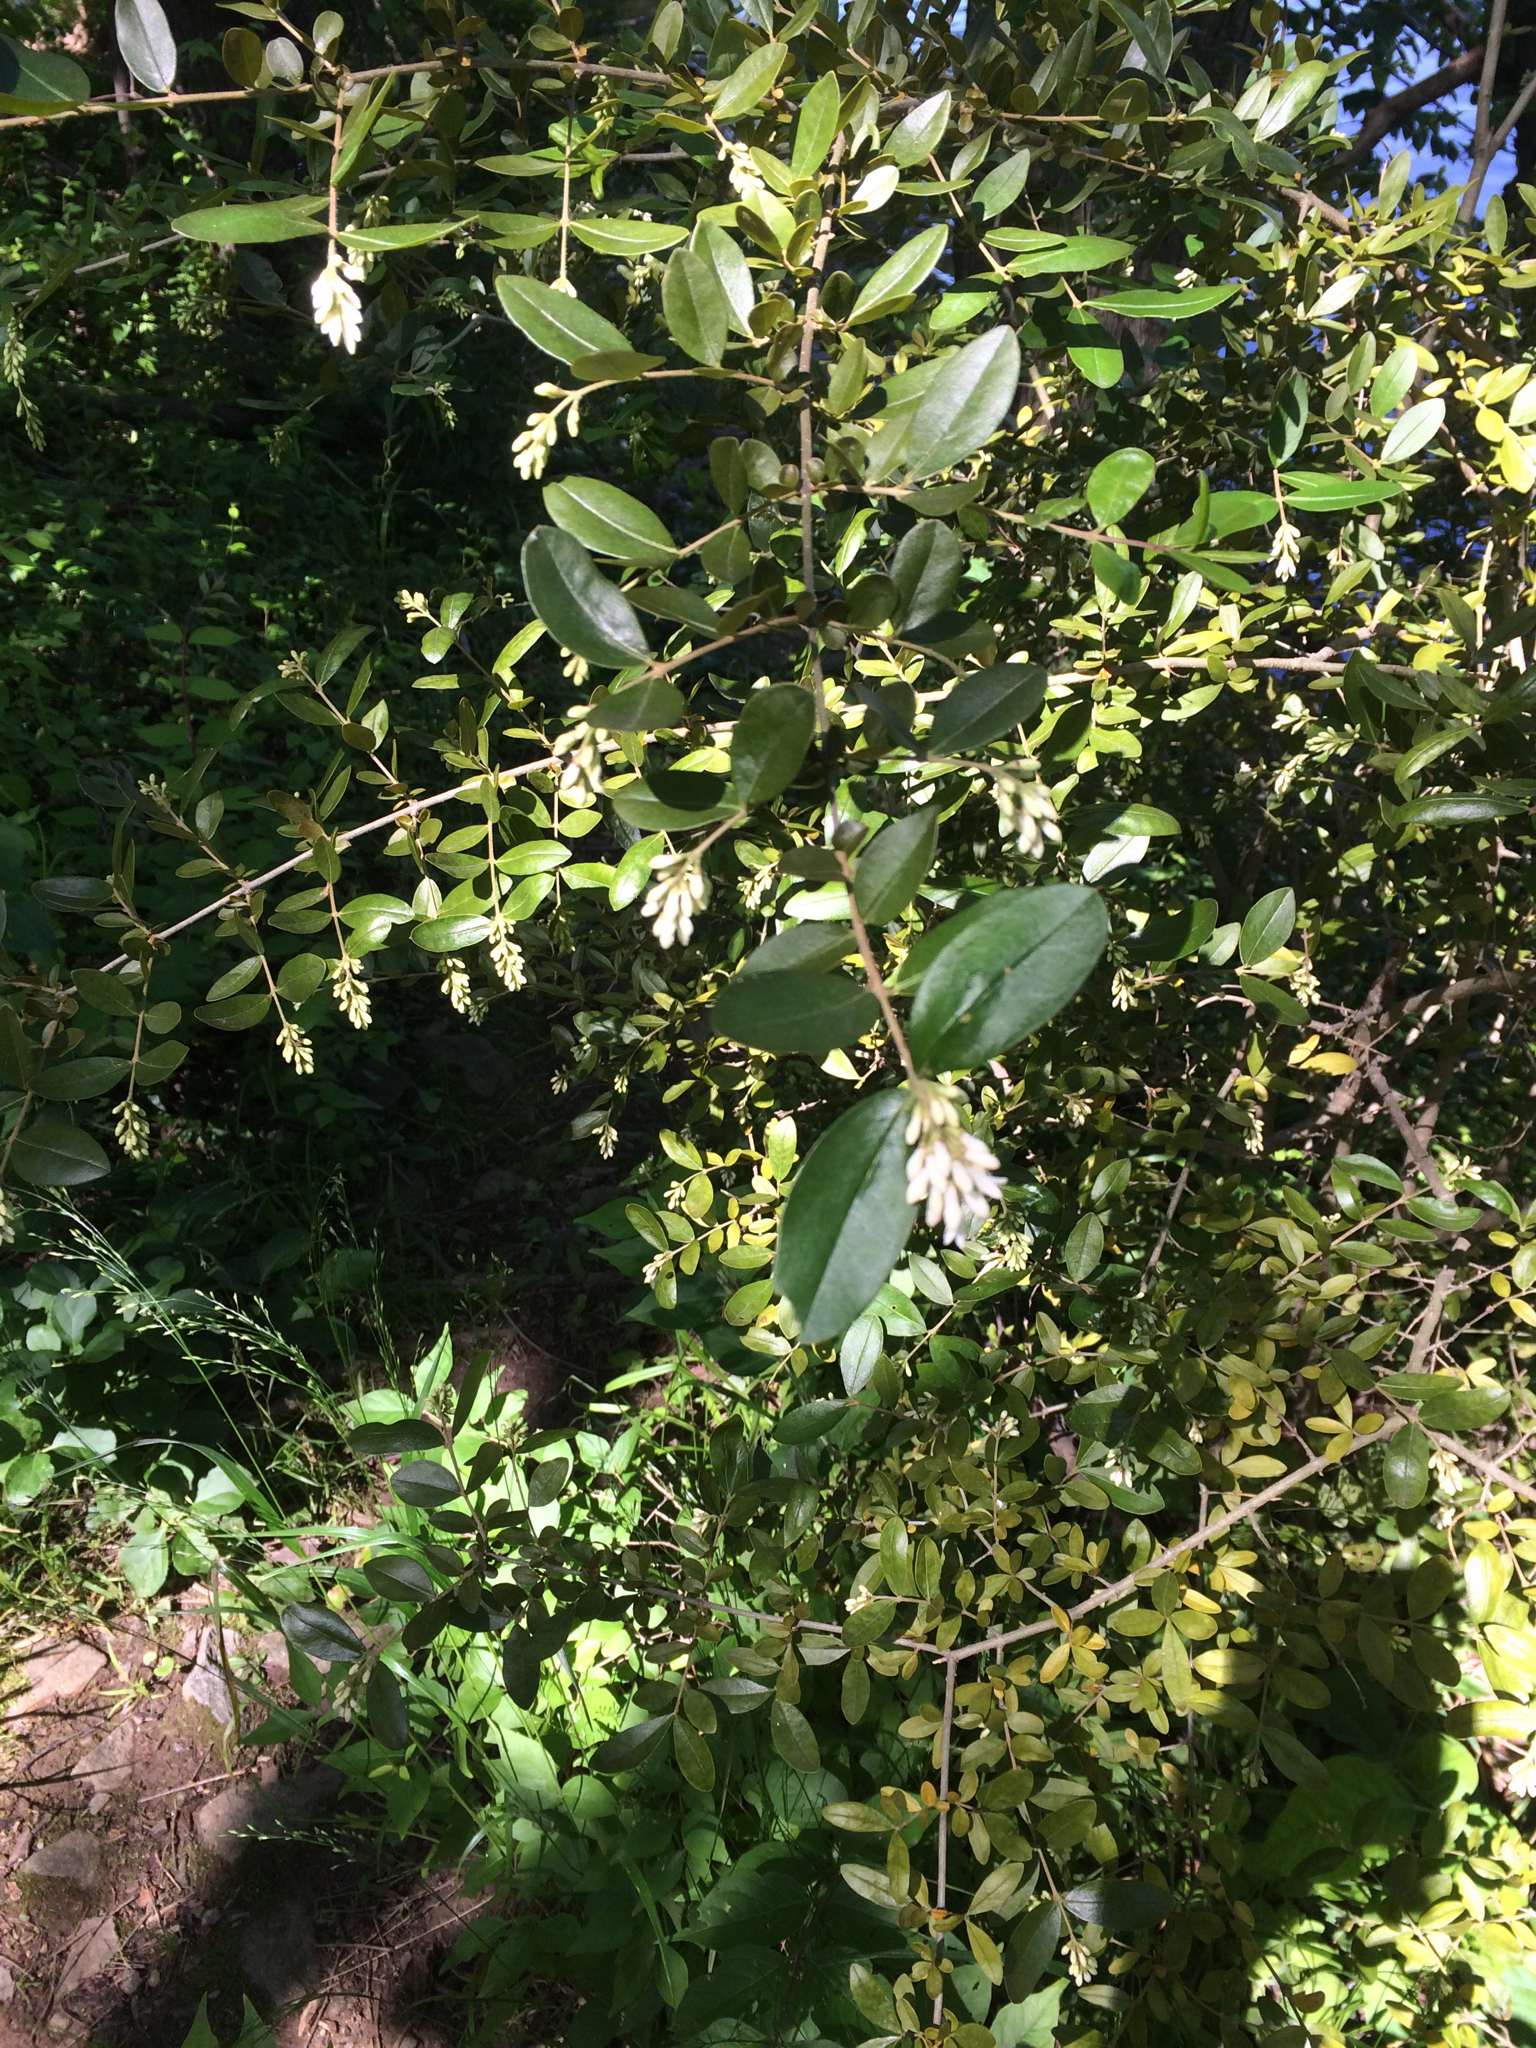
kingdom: Plantae
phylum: Tracheophyta
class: Magnoliopsida
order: Lamiales
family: Oleaceae
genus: Ligustrum
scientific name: Ligustrum obtusifolium
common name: Border privet
